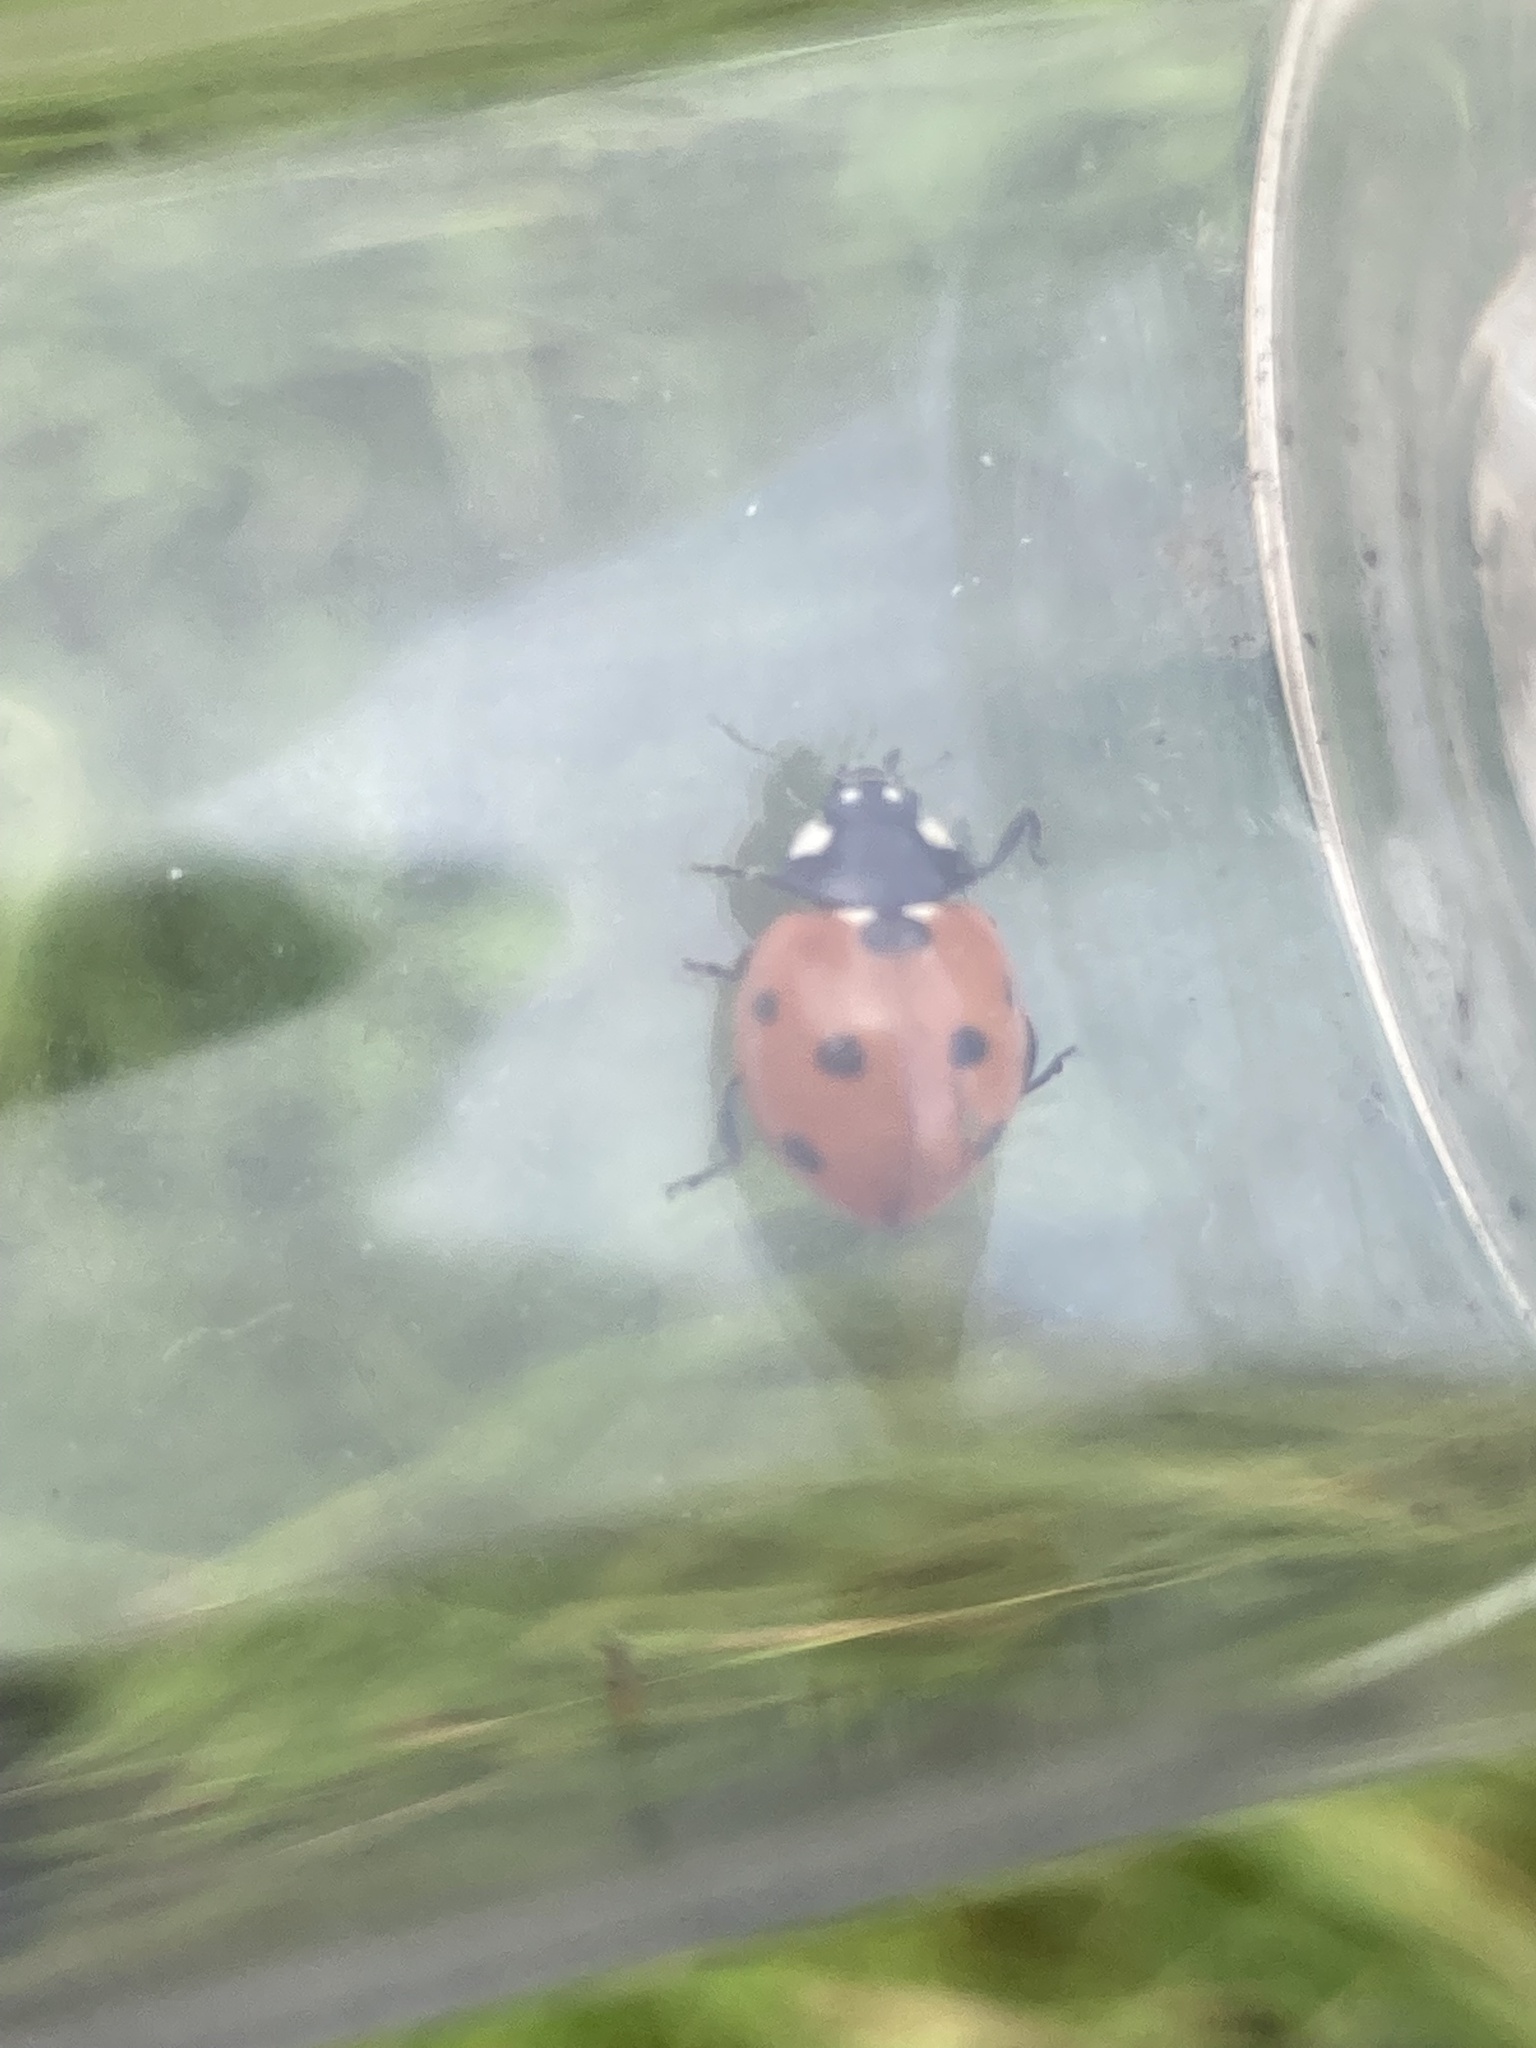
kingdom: Animalia
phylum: Arthropoda
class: Insecta
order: Coleoptera
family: Coccinellidae
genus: Coccinella
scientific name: Coccinella septempunctata
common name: Sevenspotted lady beetle
